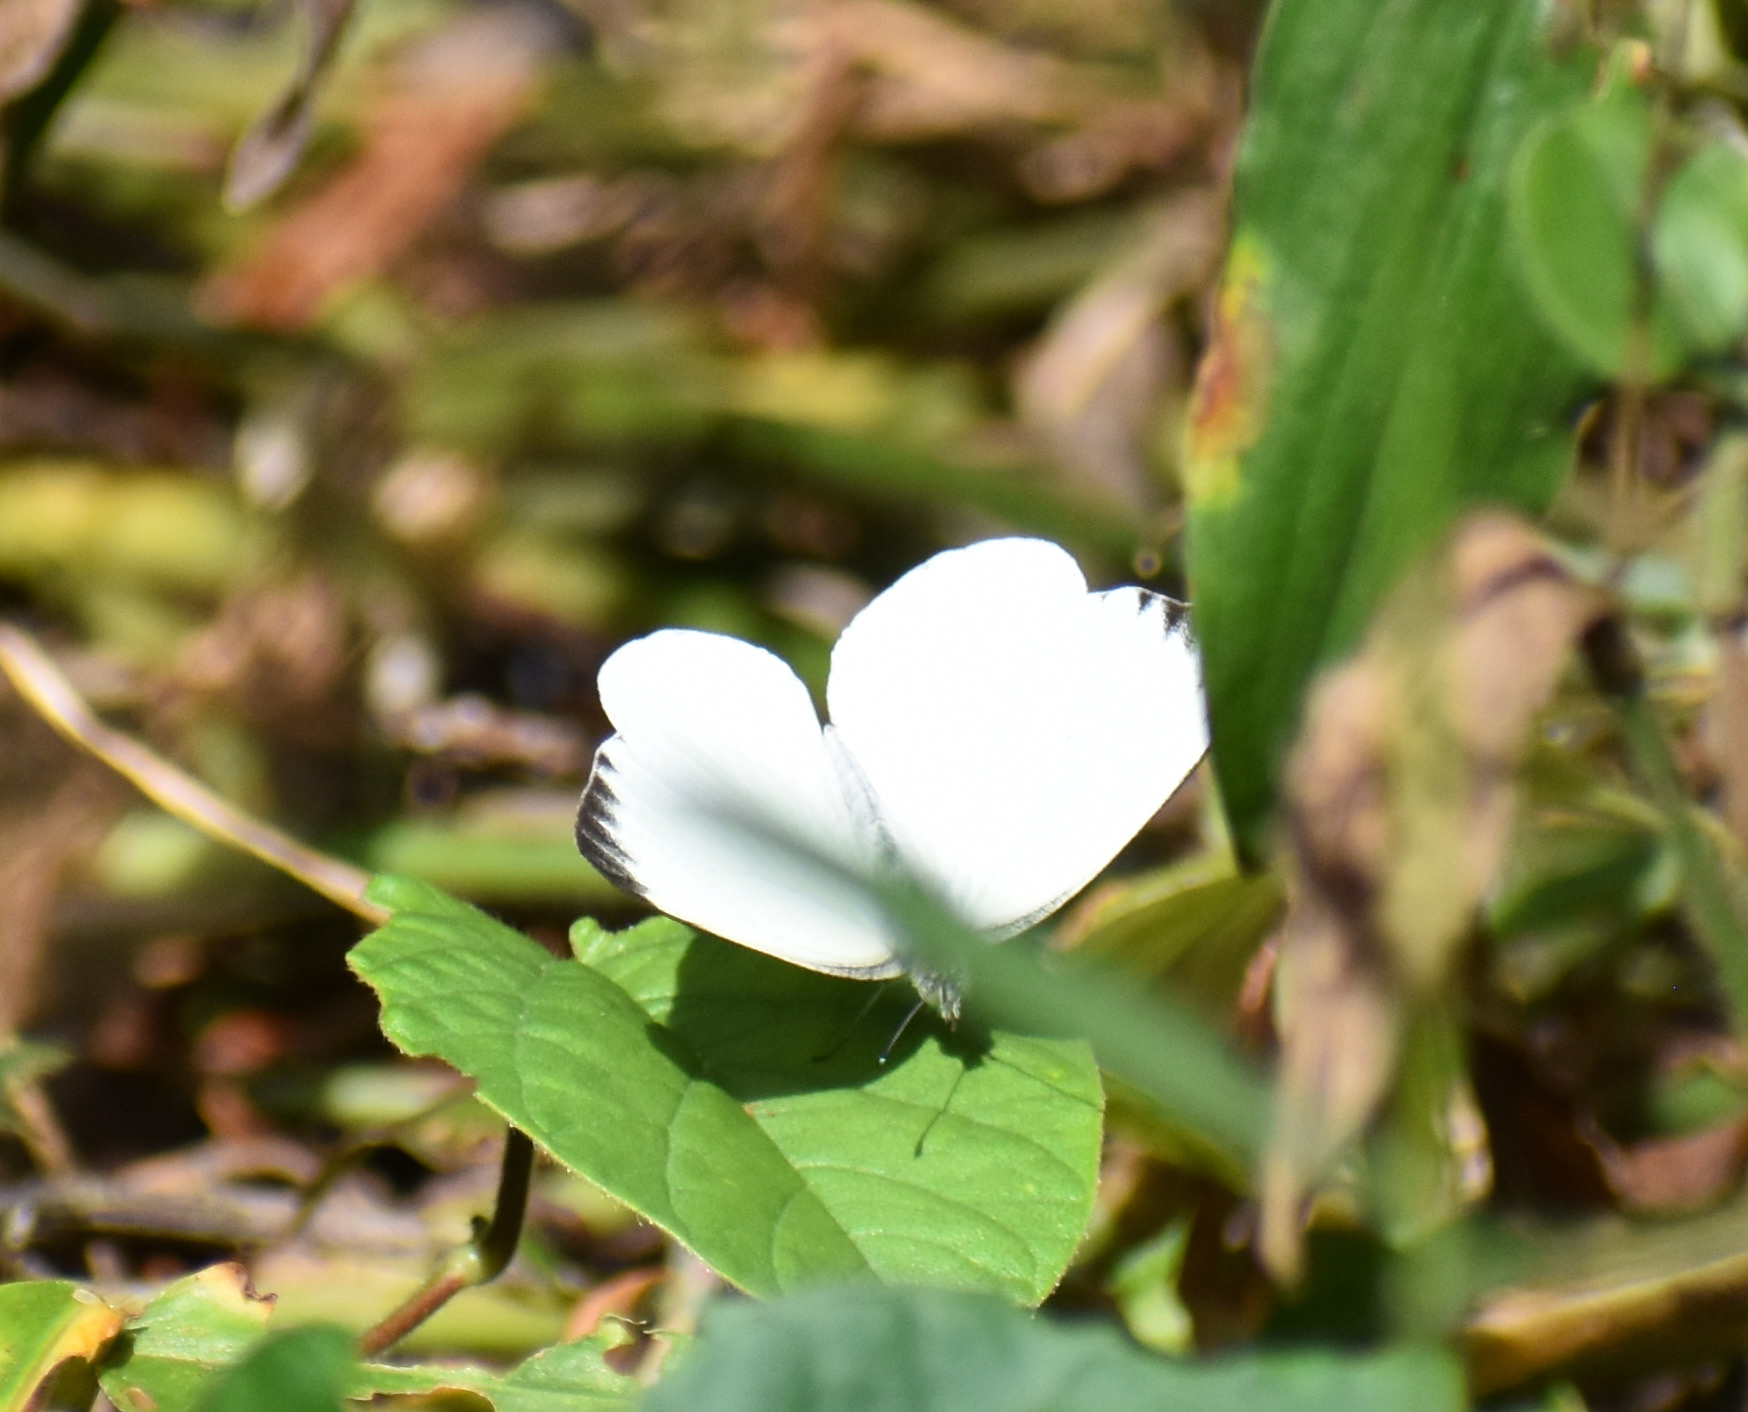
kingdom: Animalia
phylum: Arthropoda
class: Insecta
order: Lepidoptera
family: Pieridae
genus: Glutophrissa
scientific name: Glutophrissa epaphia
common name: African albatross
